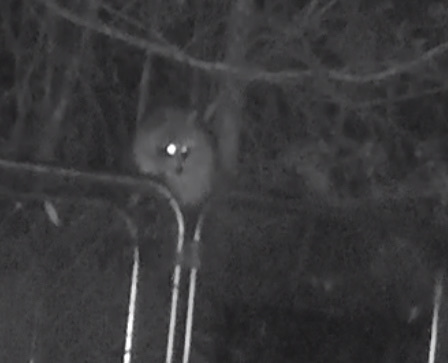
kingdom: Animalia
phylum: Chordata
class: Mammalia
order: Carnivora
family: Procyonidae
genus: Procyon
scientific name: Procyon lotor
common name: Raccoon
